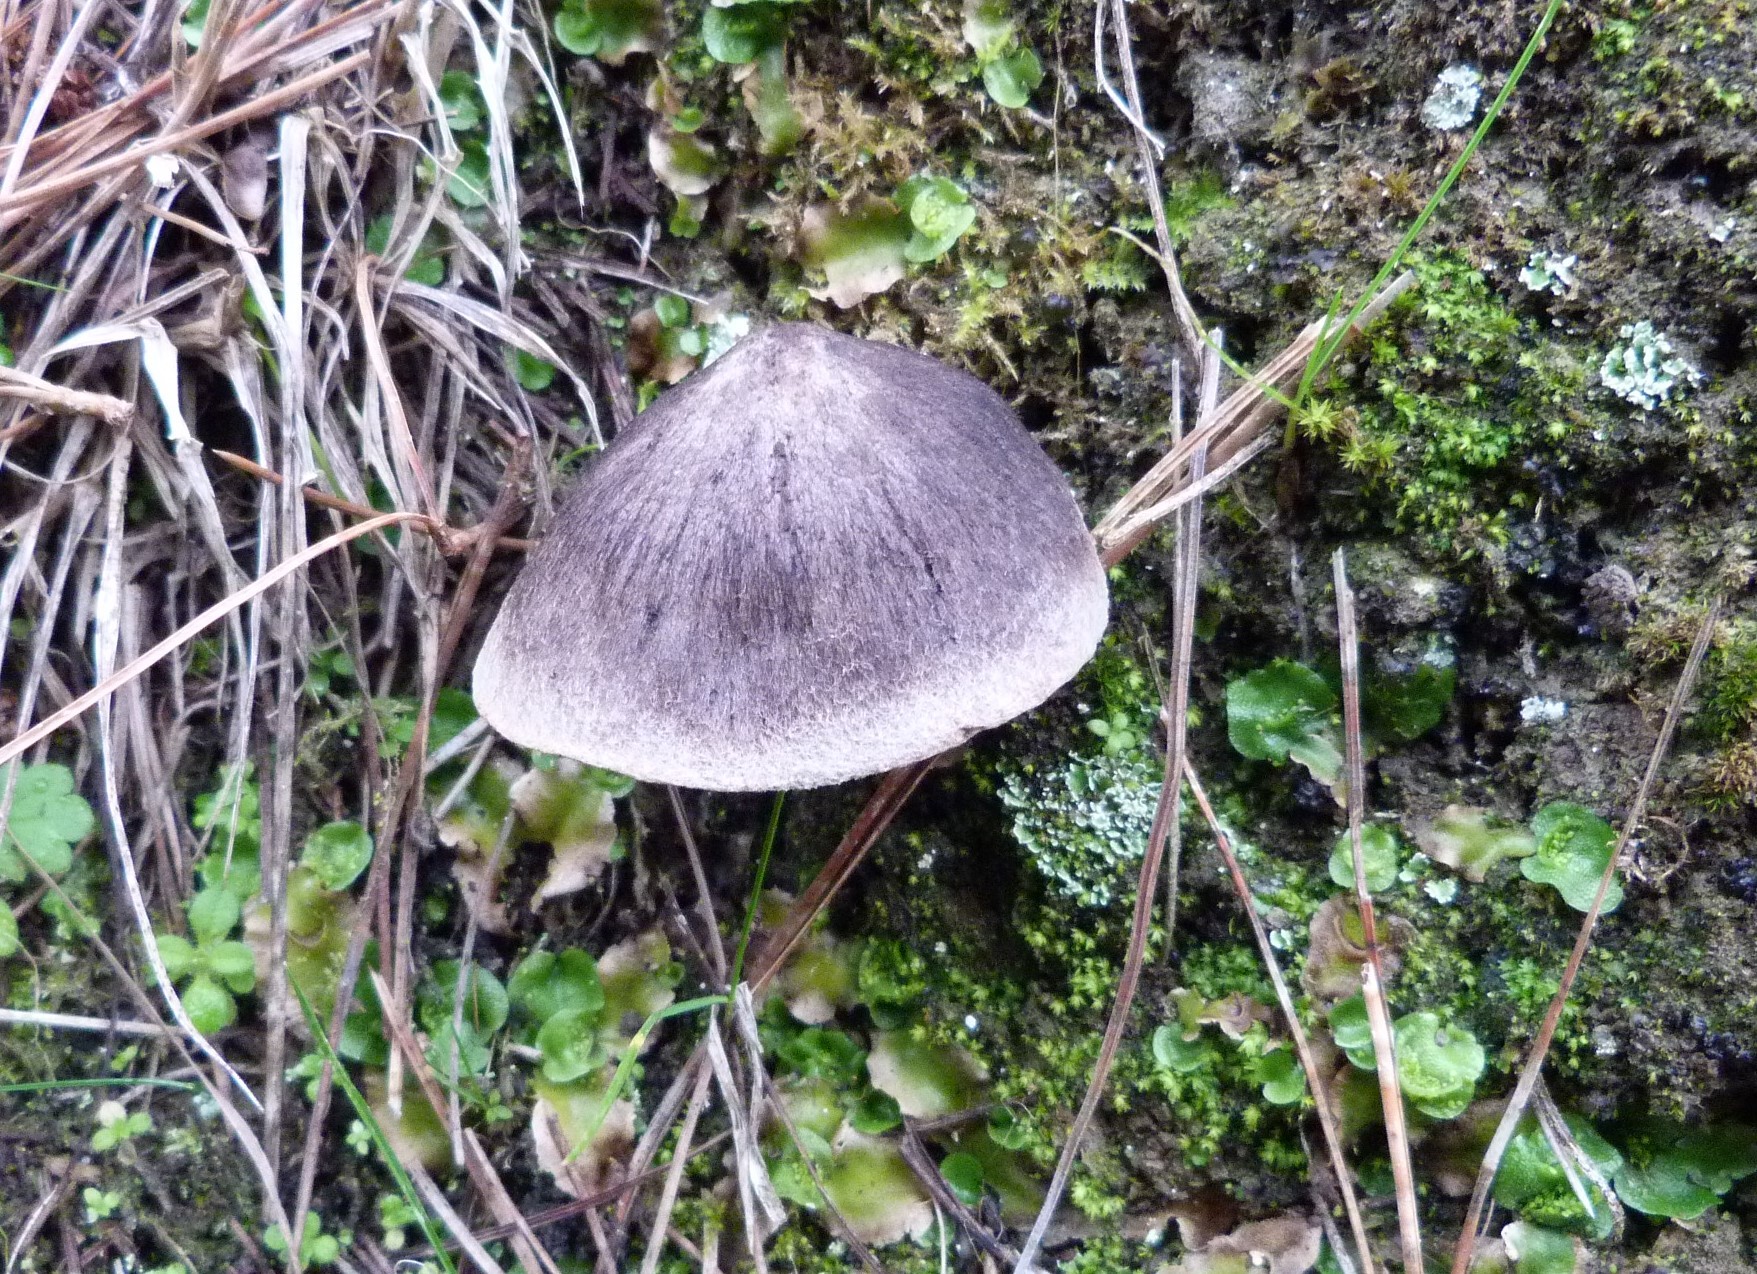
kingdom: Fungi
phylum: Basidiomycota
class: Agaricomycetes
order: Agaricales
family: Tricholomataceae
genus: Tricholoma
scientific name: Tricholoma terreum
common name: Grey knight
